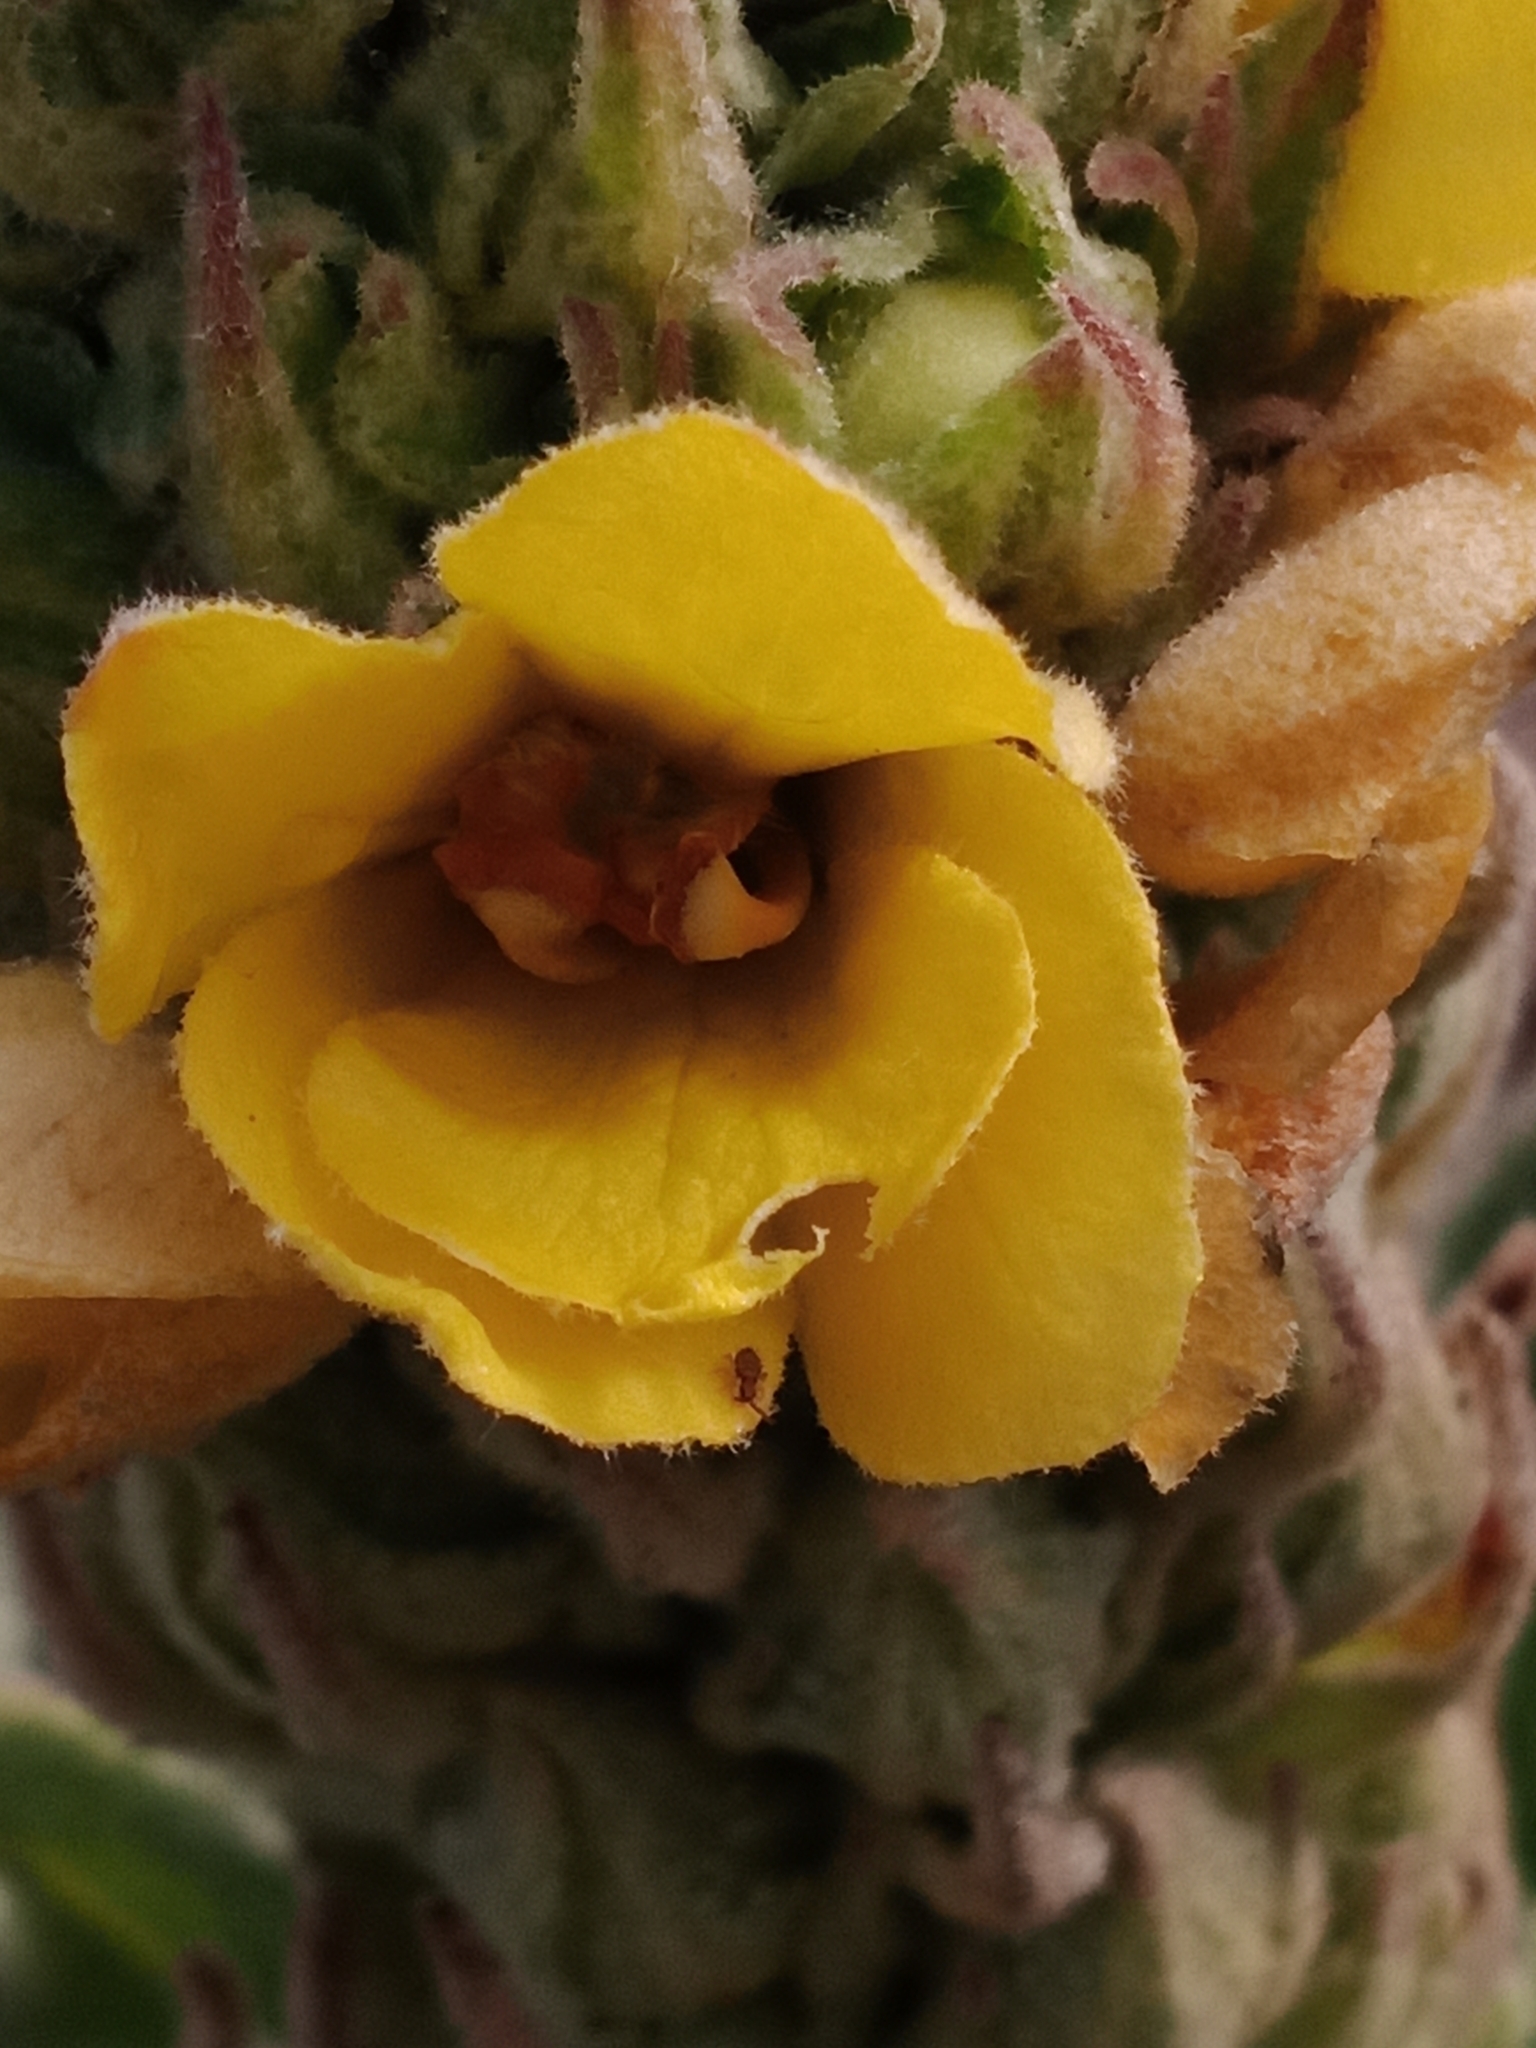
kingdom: Plantae
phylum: Tracheophyta
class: Magnoliopsida
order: Lamiales
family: Scrophulariaceae
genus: Verbascum
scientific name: Verbascum thapsus
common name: Common mullein
